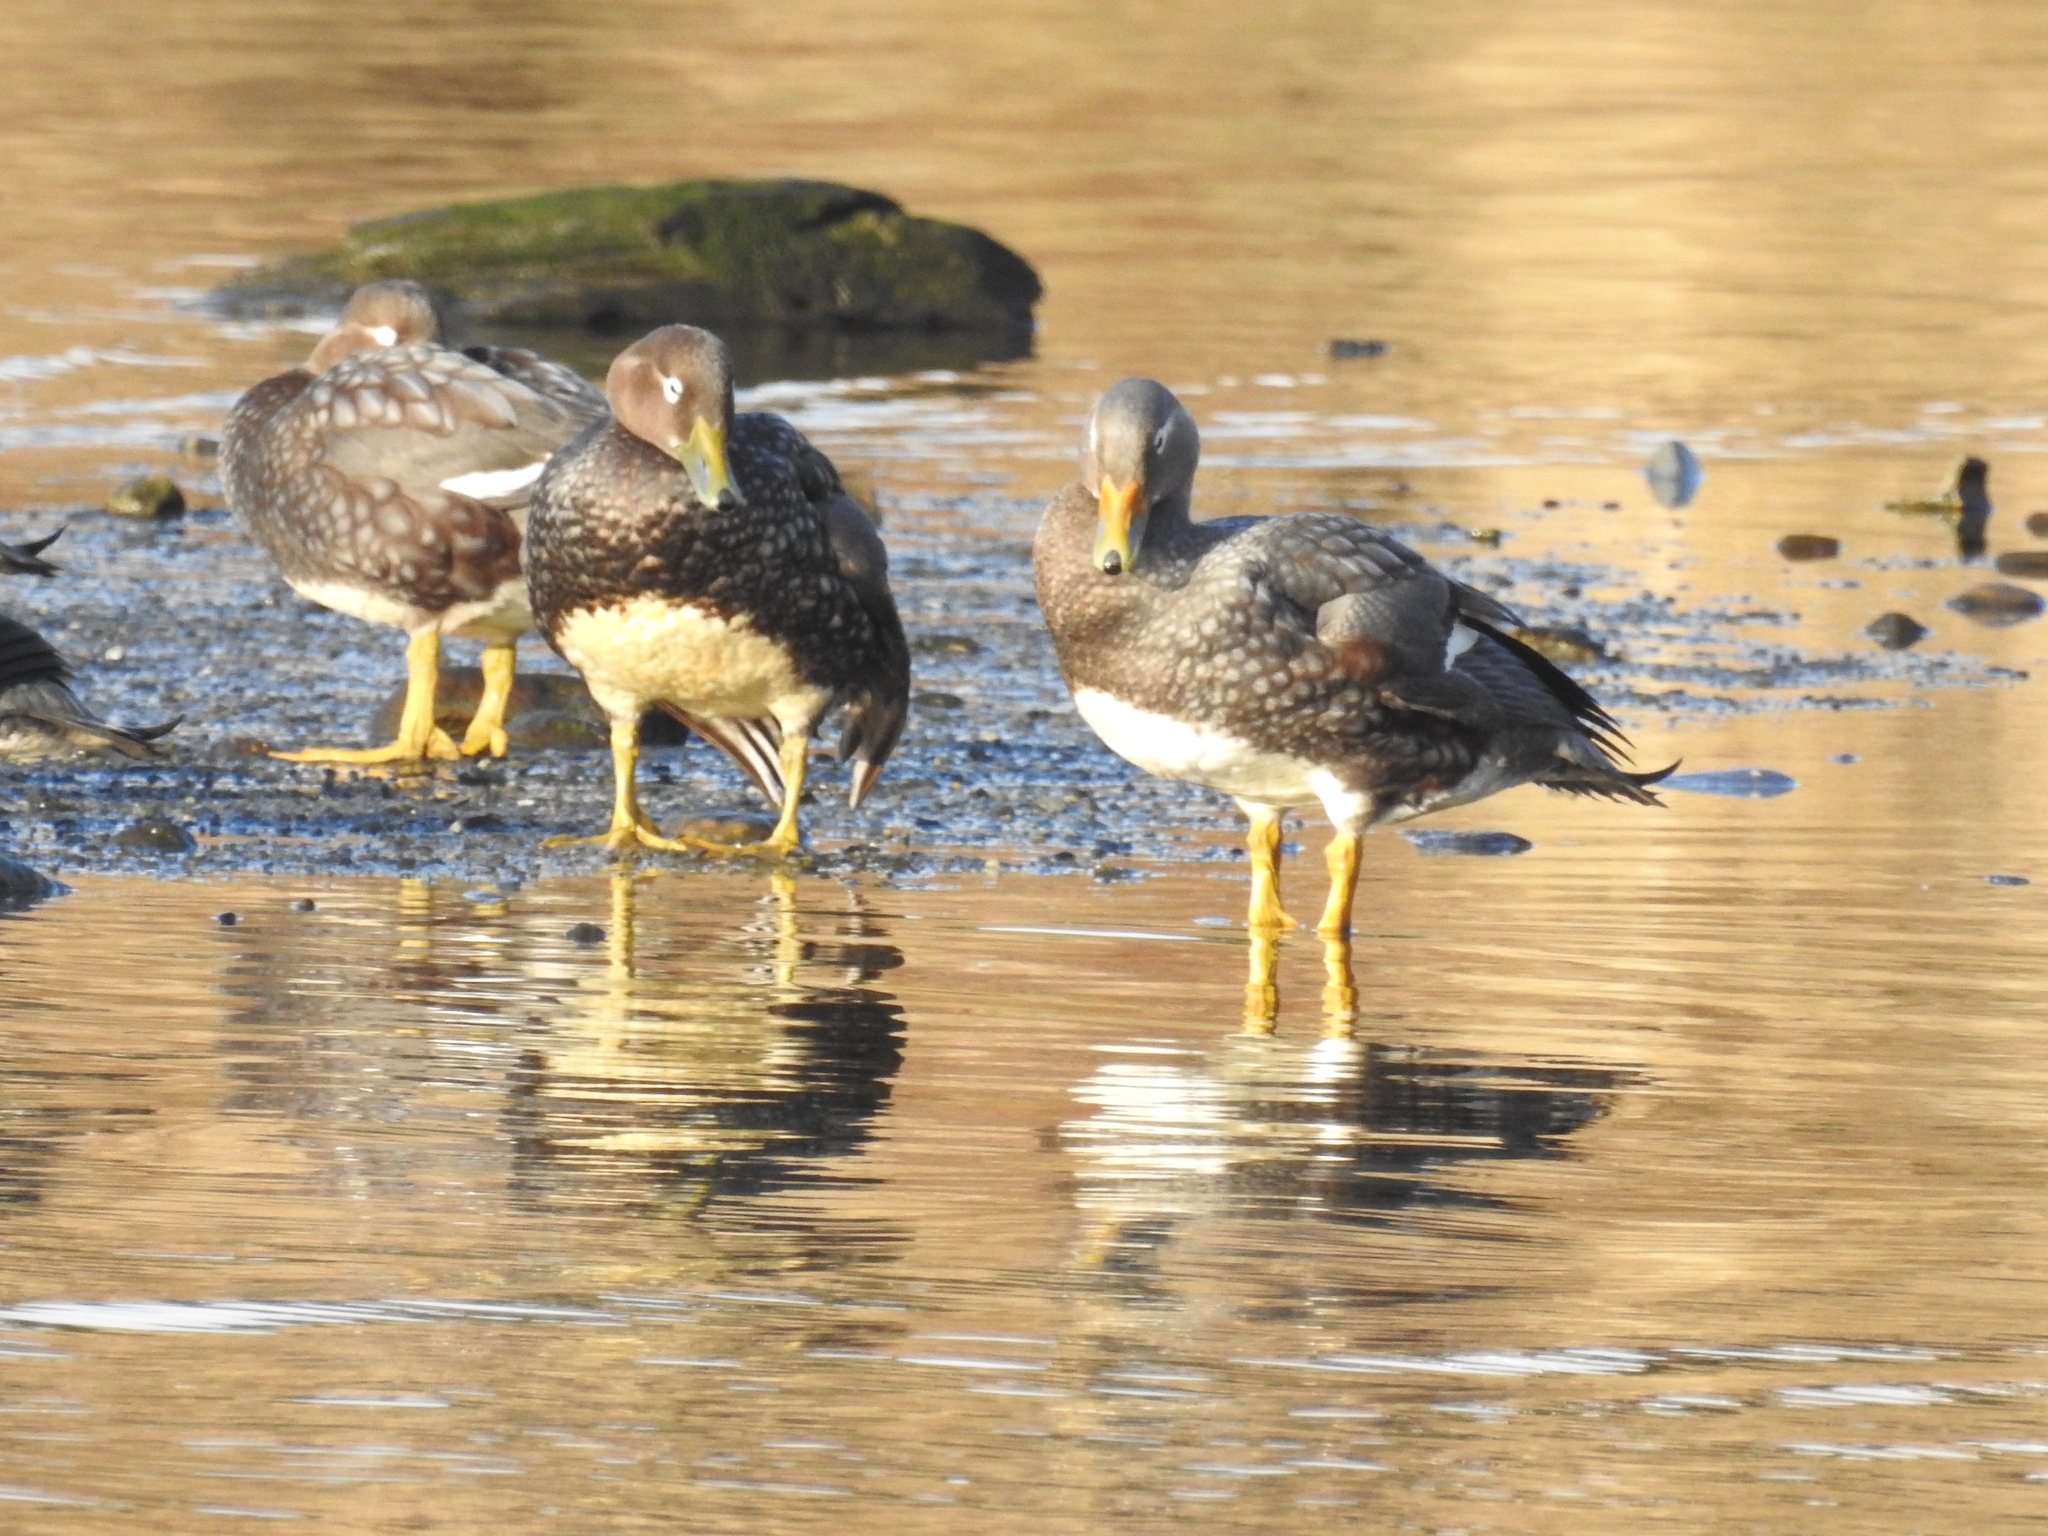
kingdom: Animalia
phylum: Chordata
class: Aves
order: Anseriformes
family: Anatidae
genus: Tachyeres
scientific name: Tachyeres patachonicus
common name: Flying steamer duck
